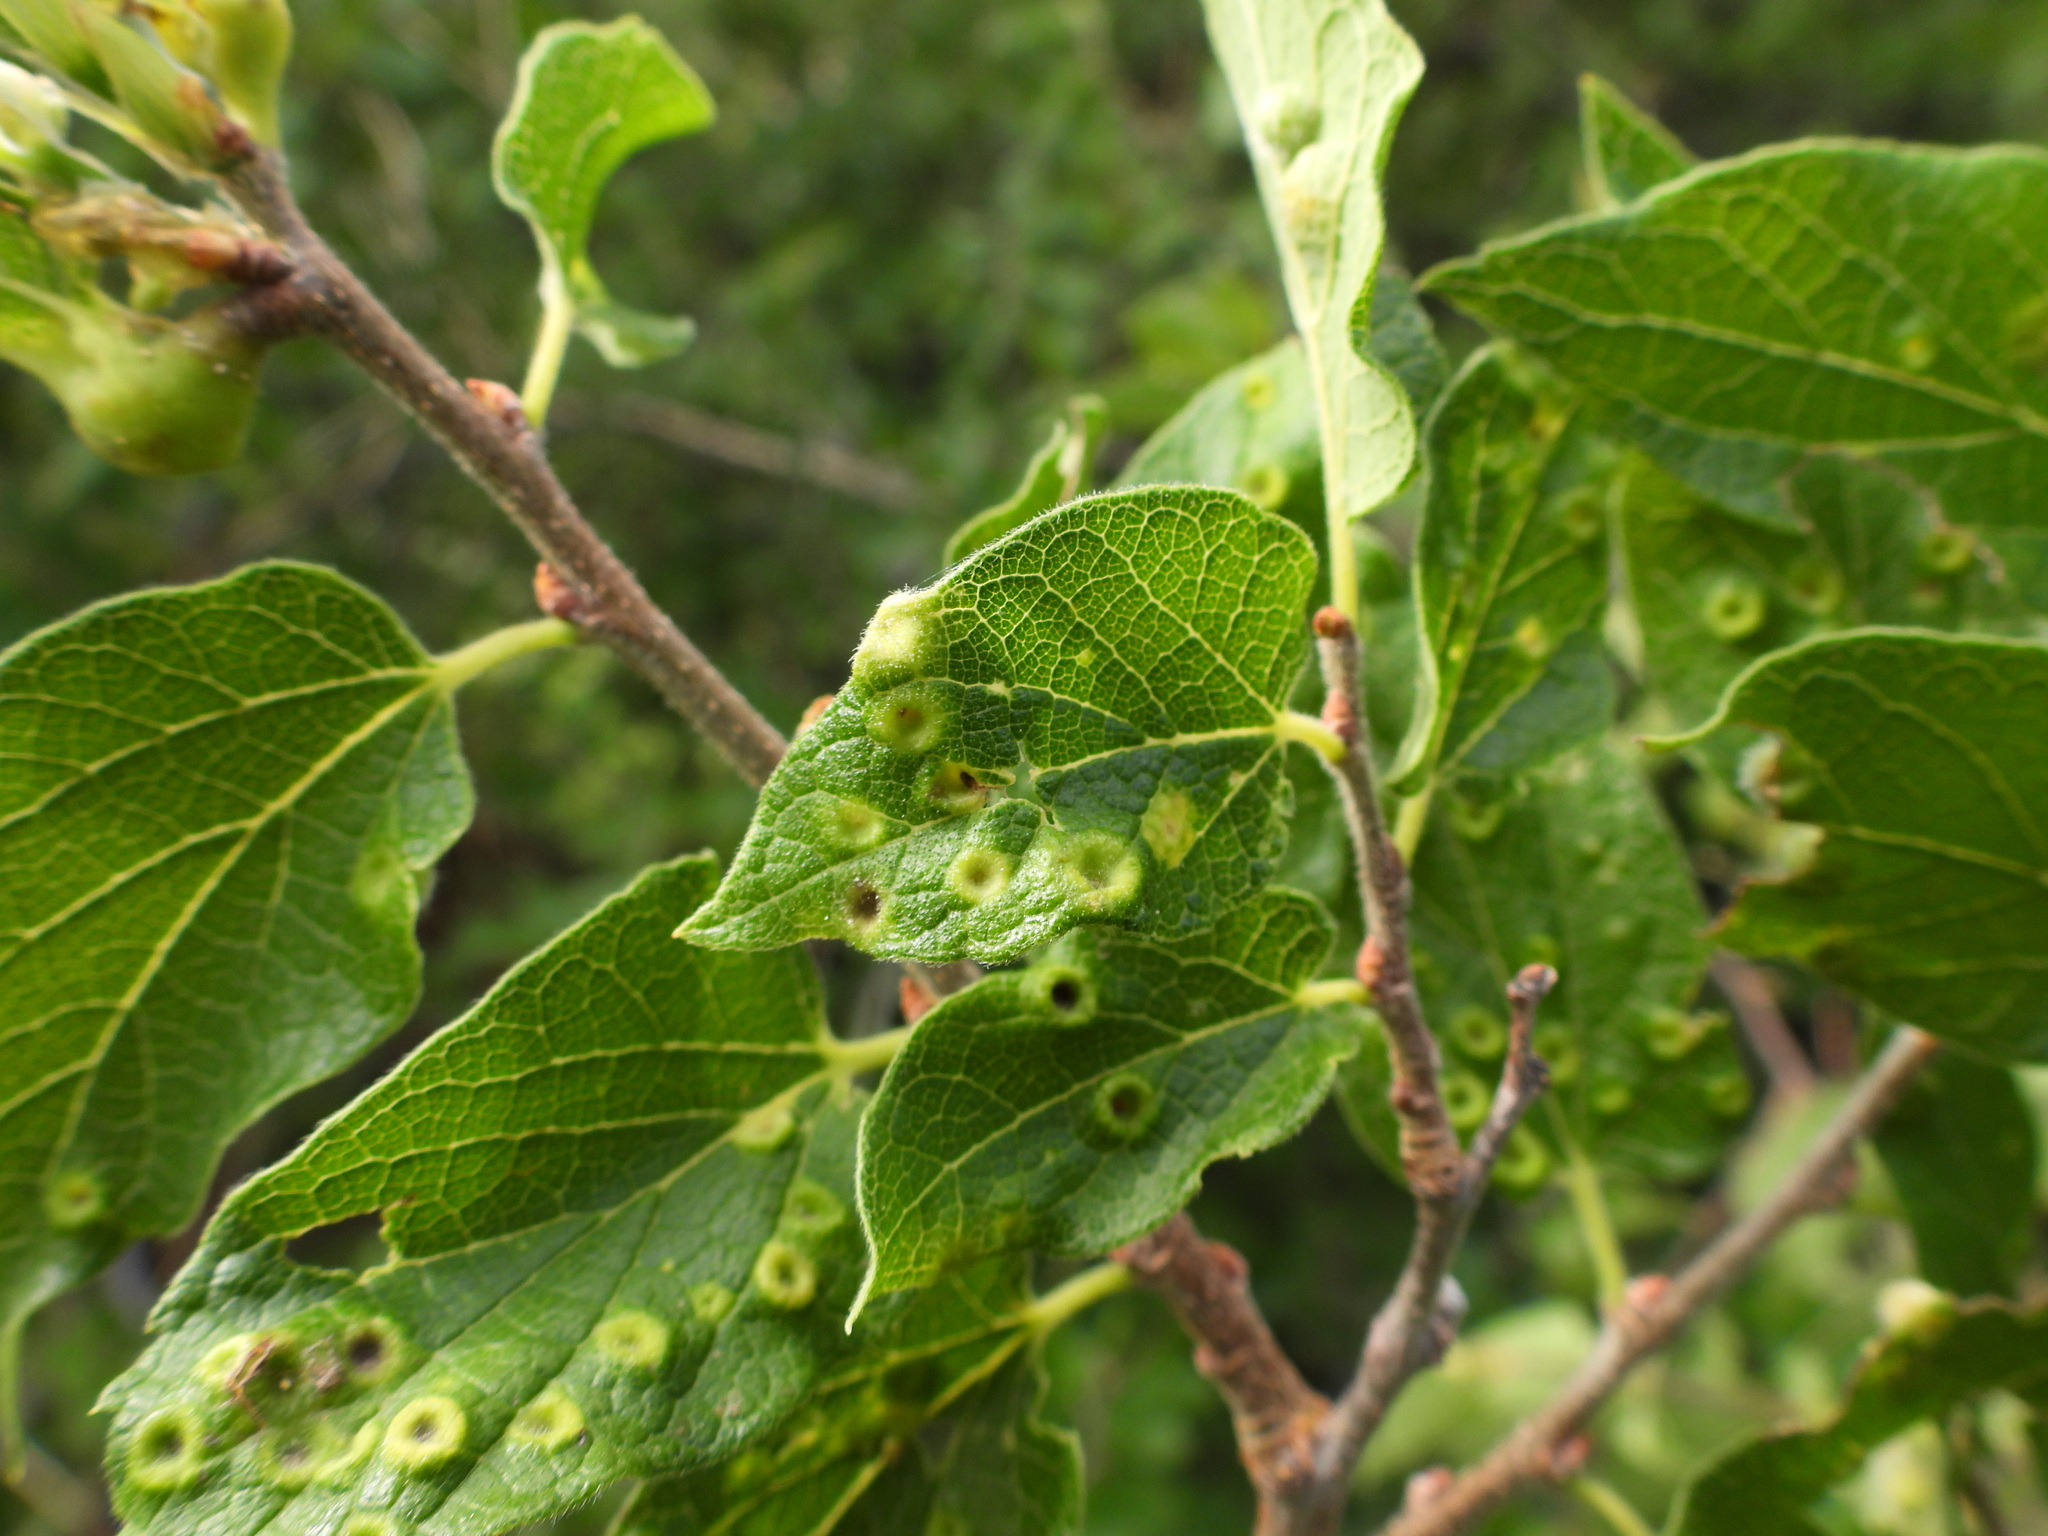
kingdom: Animalia
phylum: Arthropoda
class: Insecta
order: Hemiptera
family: Aphalaridae
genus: Pachypsylla
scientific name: Pachypsylla celtidispubescens
